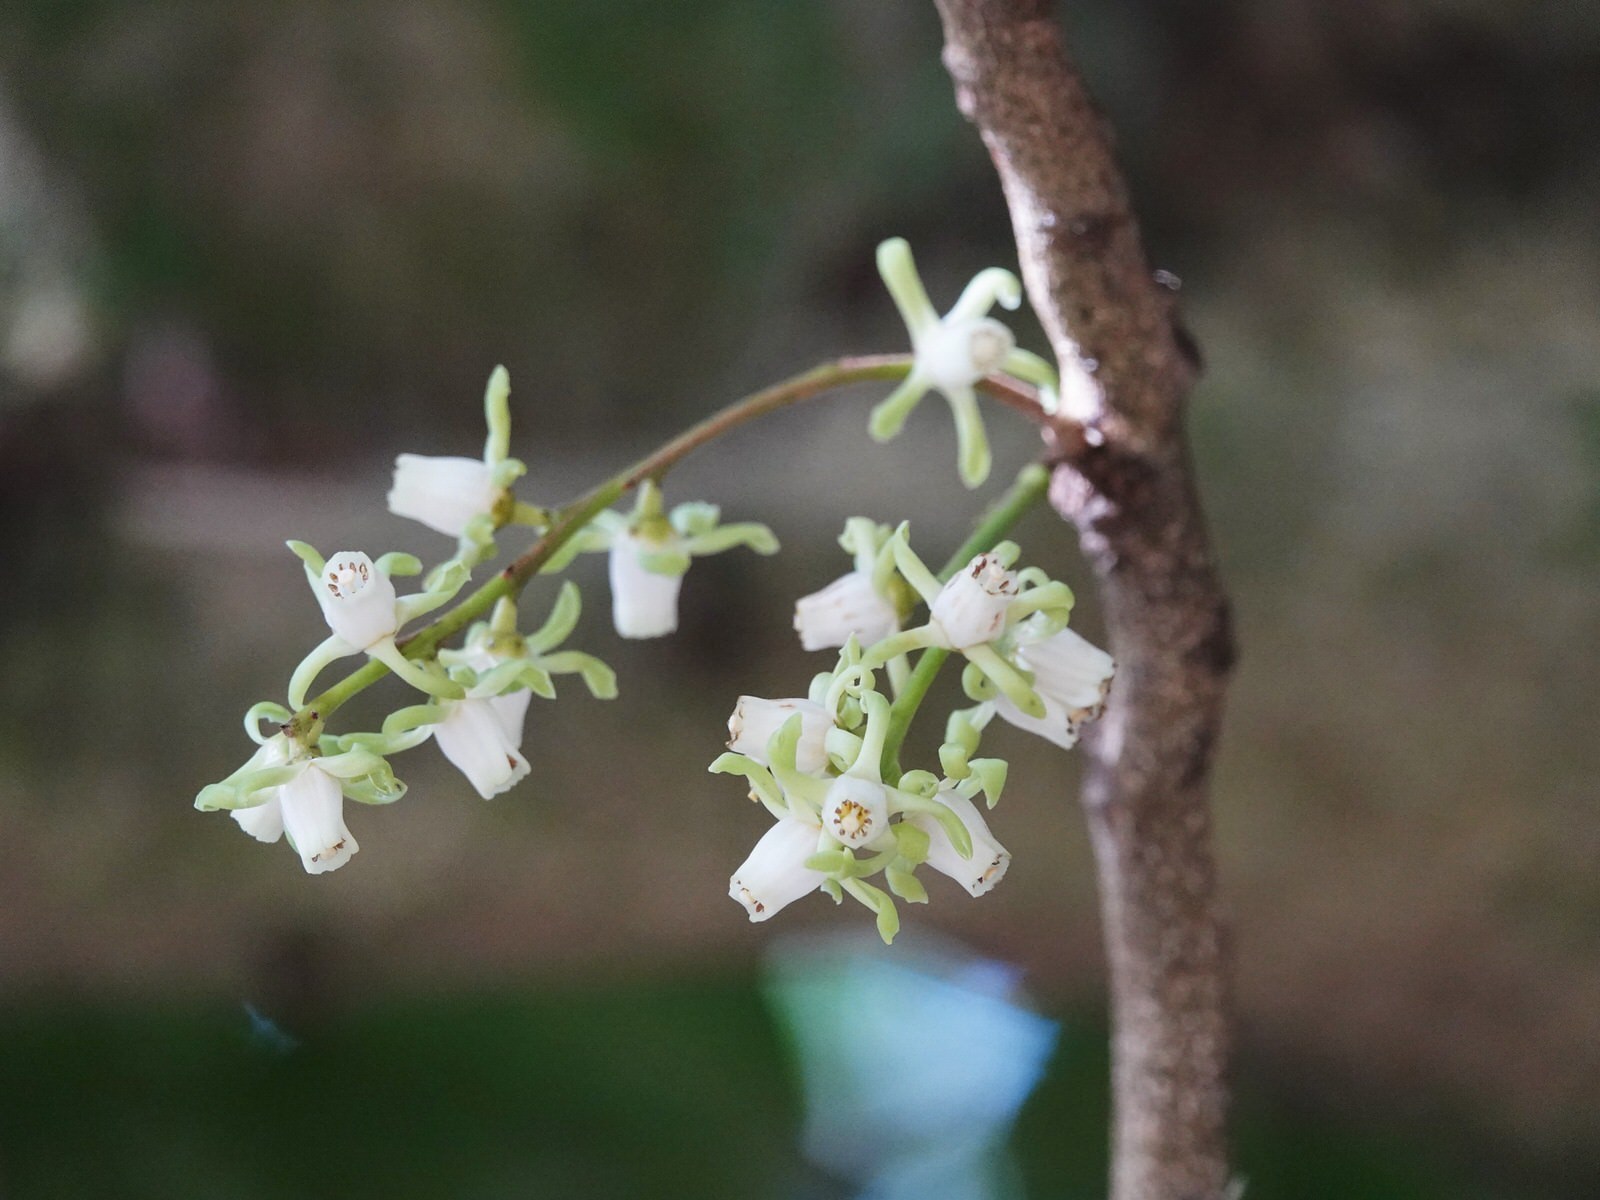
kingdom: Plantae
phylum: Tracheophyta
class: Magnoliopsida
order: Sapindales
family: Meliaceae
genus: Didymocheton
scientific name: Didymocheton spectabilis
